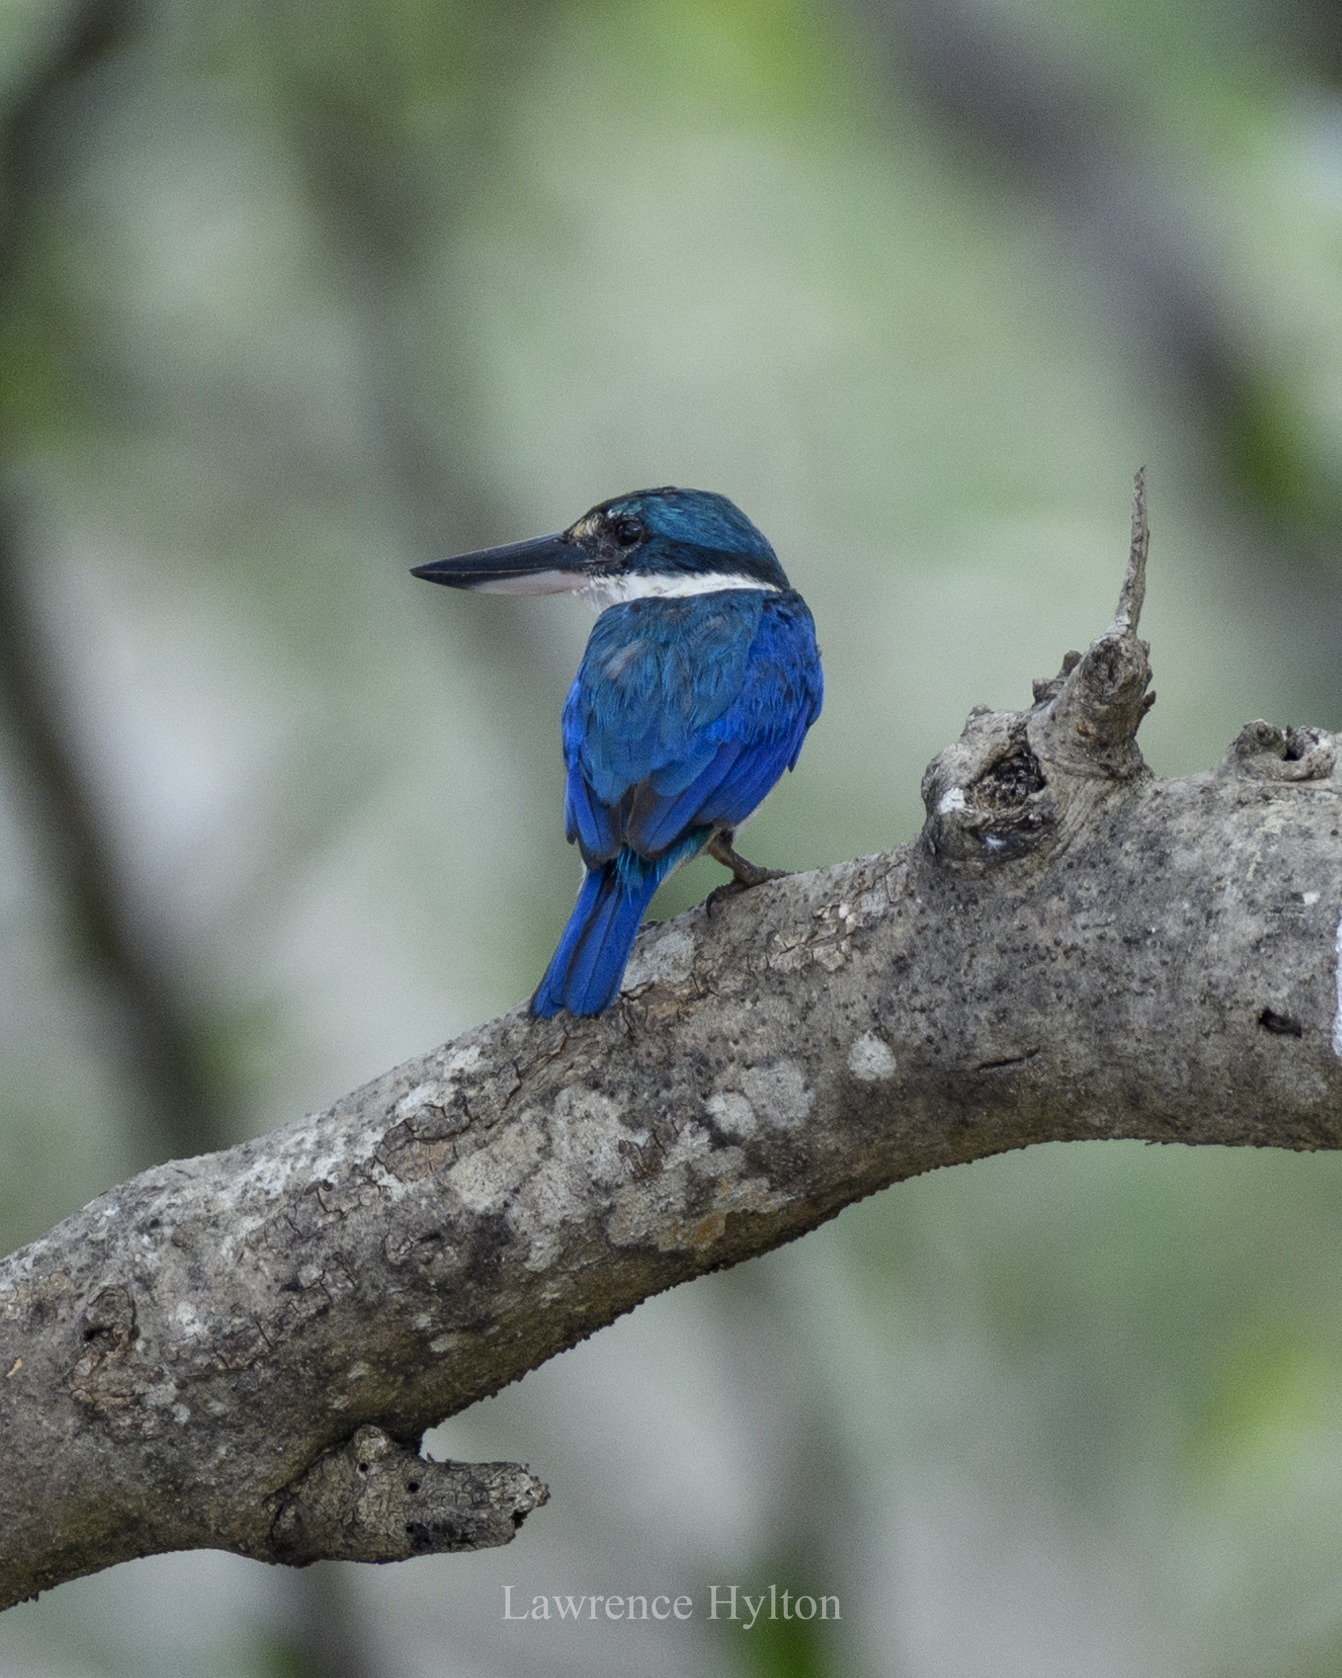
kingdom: Animalia
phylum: Chordata
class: Aves
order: Coraciiformes
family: Alcedinidae
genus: Todiramphus
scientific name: Todiramphus chloris
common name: Collared kingfisher
